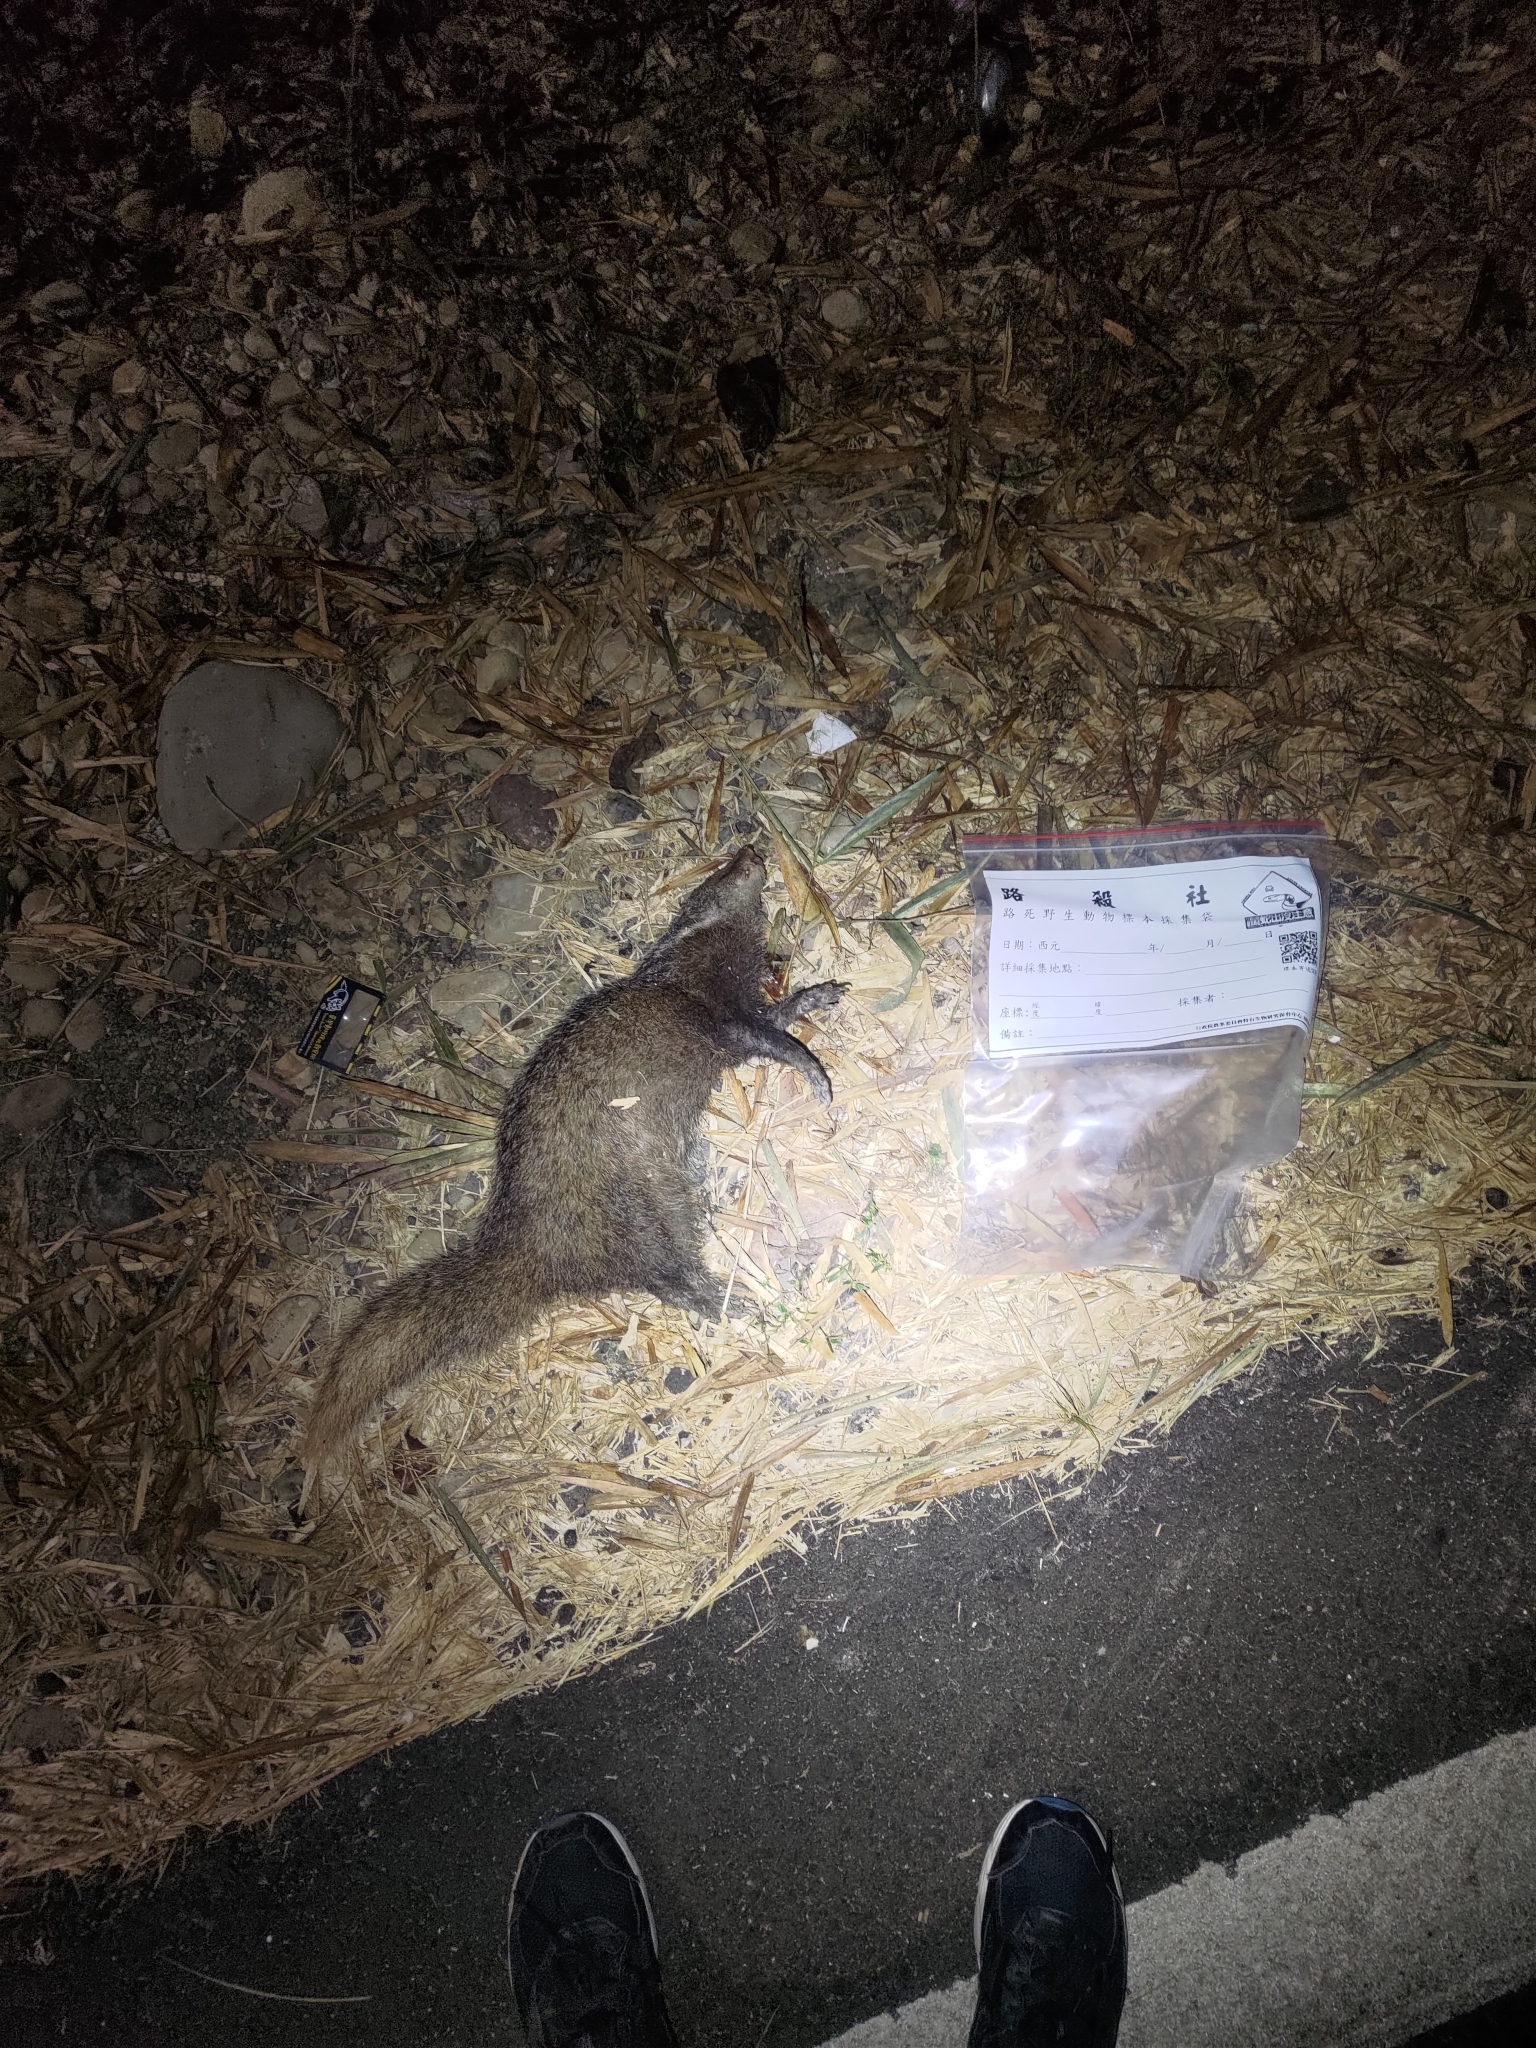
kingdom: Animalia
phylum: Chordata
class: Mammalia
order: Carnivora
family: Herpestidae
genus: Herpestes
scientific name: Herpestes urva
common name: Crab-eating mongoose
